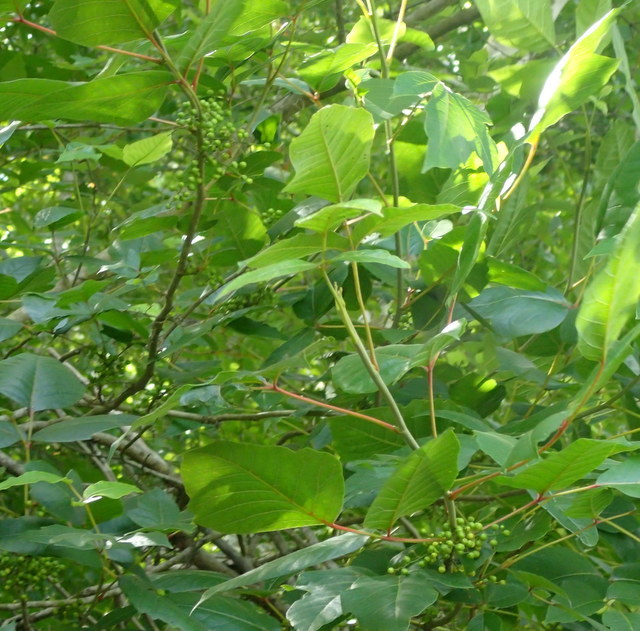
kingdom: Plantae
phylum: Tracheophyta
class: Magnoliopsida
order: Sapindales
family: Anacardiaceae
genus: Toxicodendron
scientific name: Toxicodendron radicans
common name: Poison ivy
